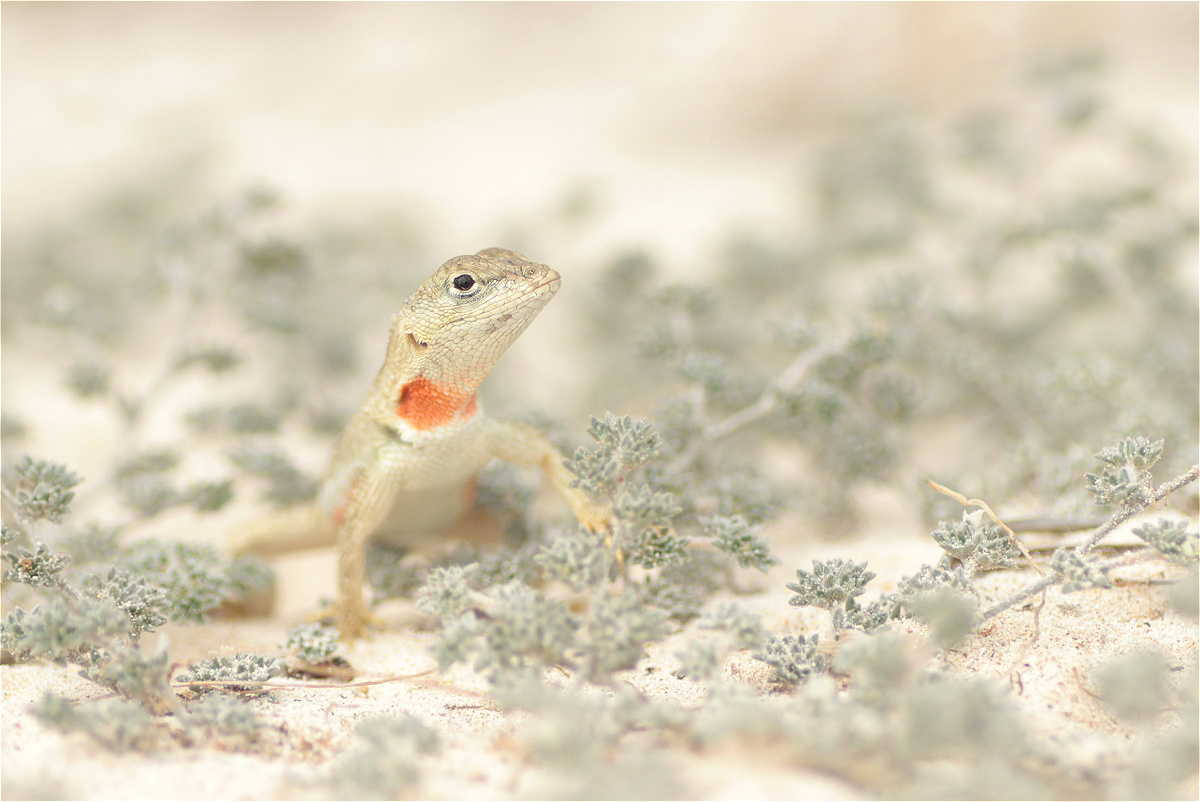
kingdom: Animalia
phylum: Chordata
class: Squamata
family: Tropiduridae
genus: Microlophus
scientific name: Microlophus bivittatus
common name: San cristobal lava lizard
